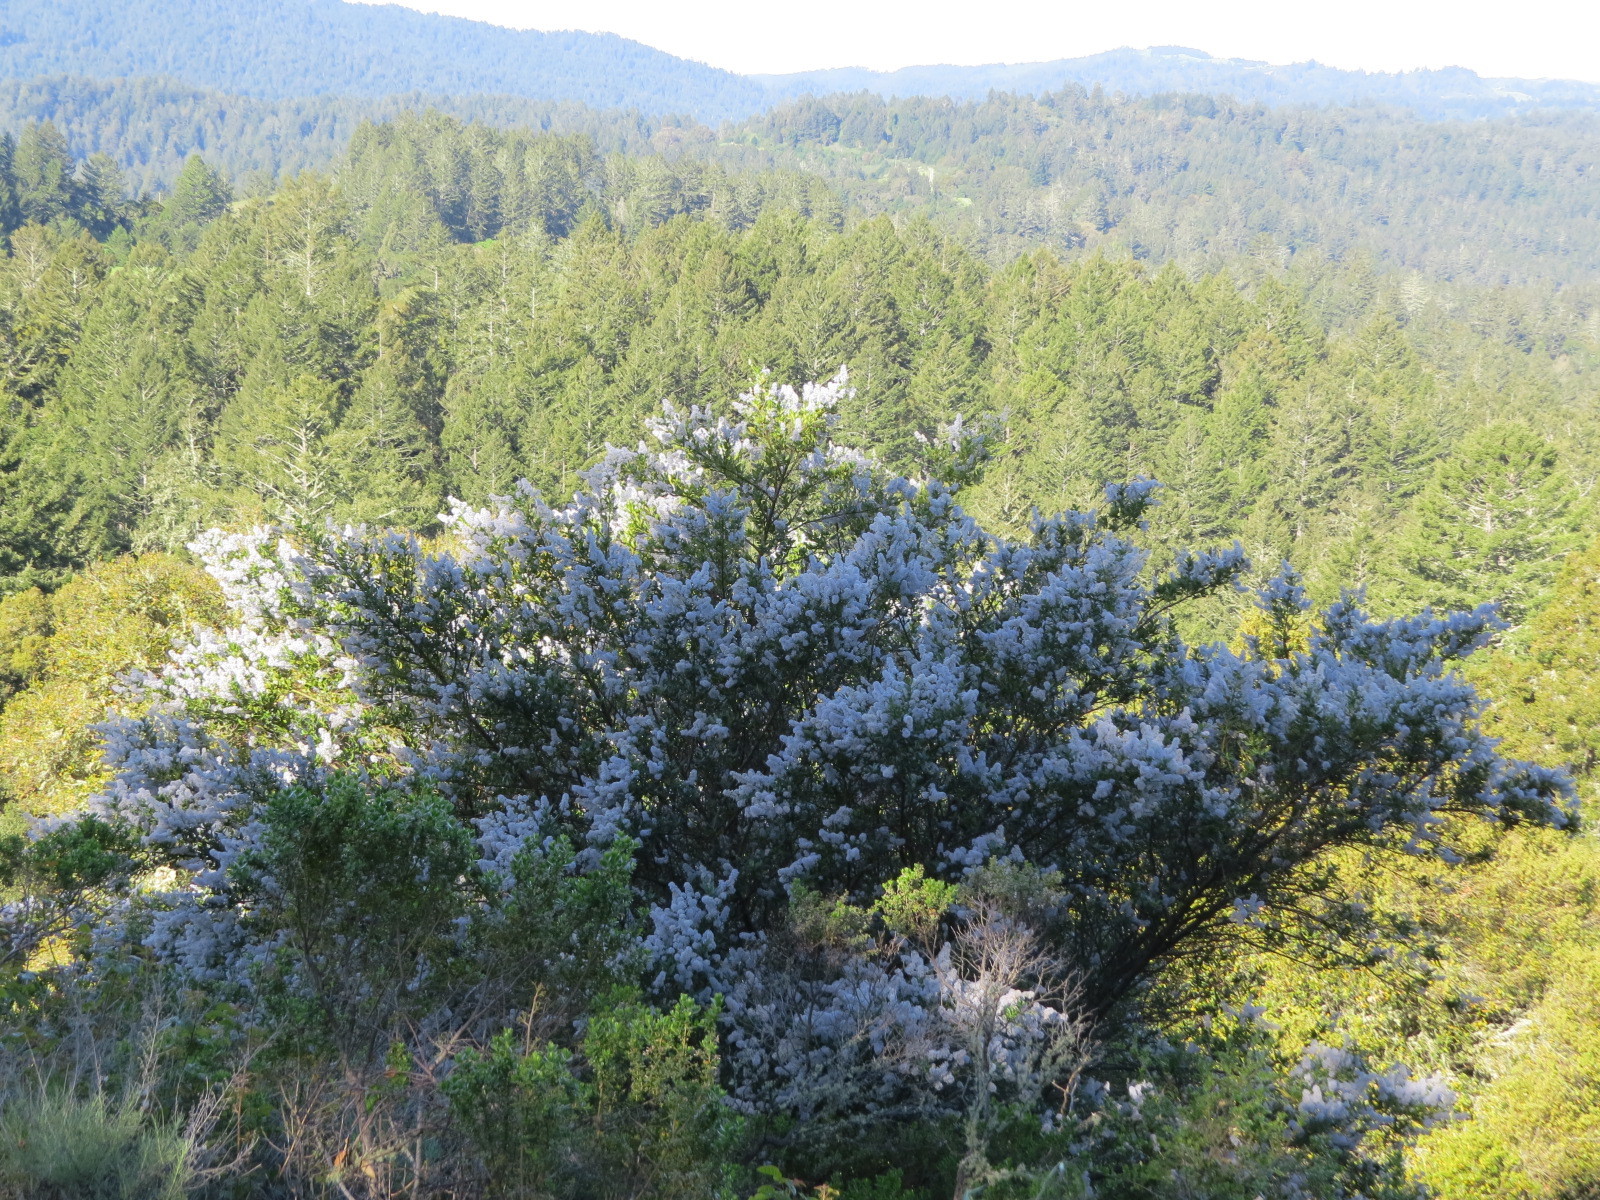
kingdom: Plantae
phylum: Tracheophyta
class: Magnoliopsida
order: Rosales
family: Rhamnaceae
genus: Ceanothus
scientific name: Ceanothus thyrsiflorus
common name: California-lilac
